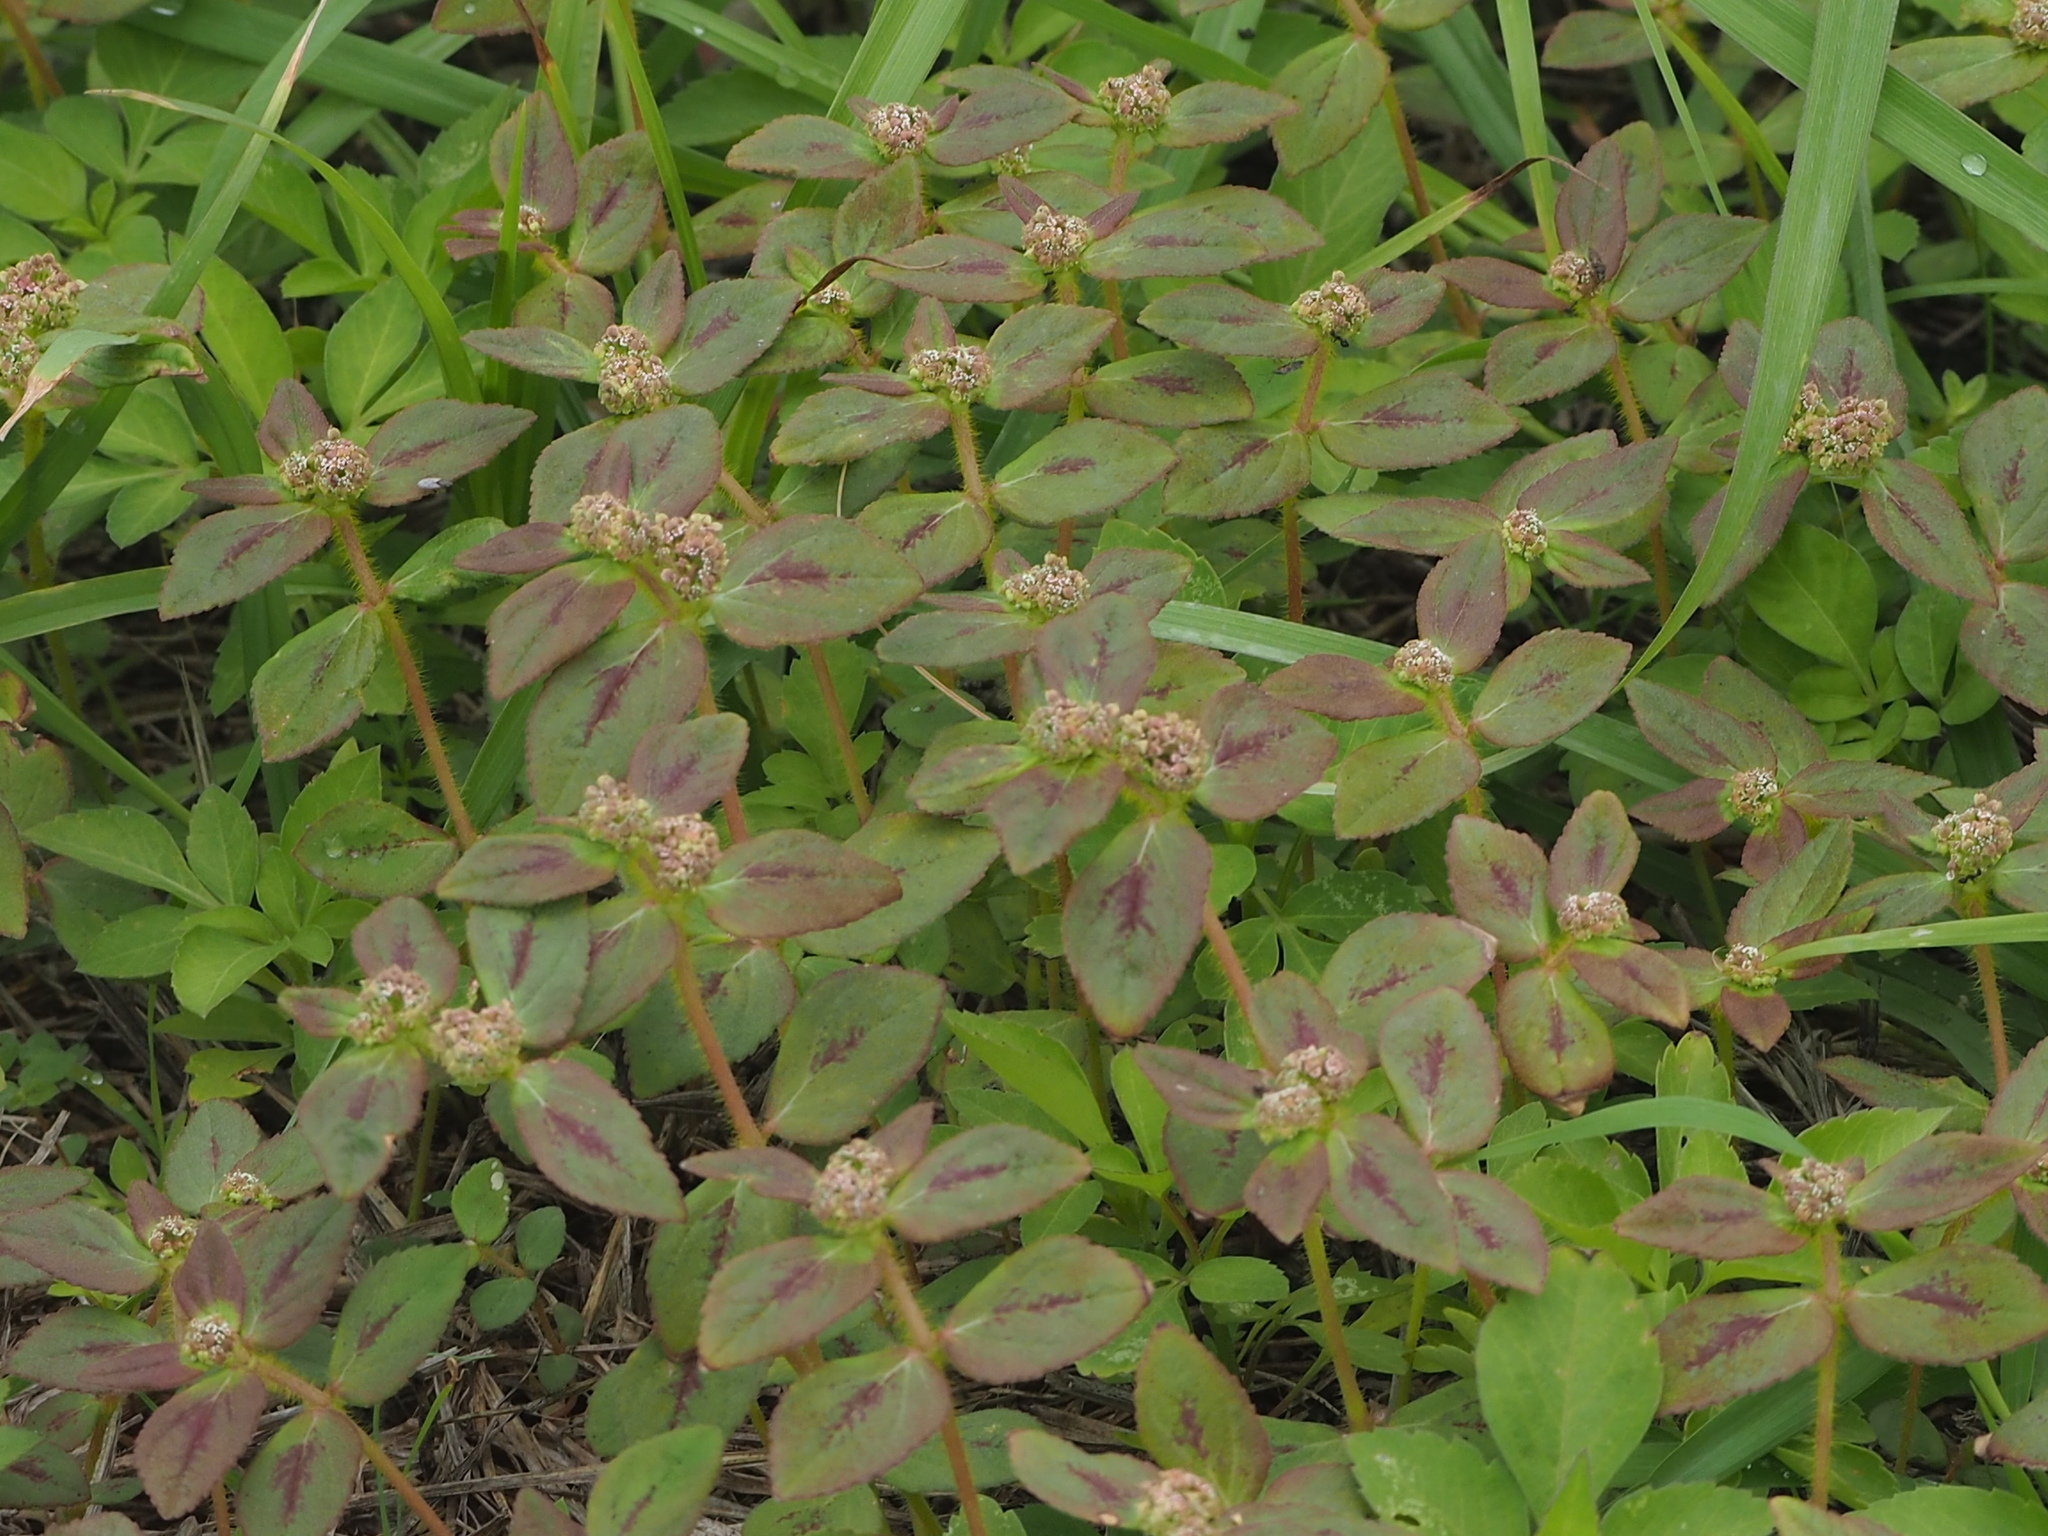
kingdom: Plantae
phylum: Tracheophyta
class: Magnoliopsida
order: Malpighiales
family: Euphorbiaceae
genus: Euphorbia
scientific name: Euphorbia hirta
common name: Pillpod sandmat
